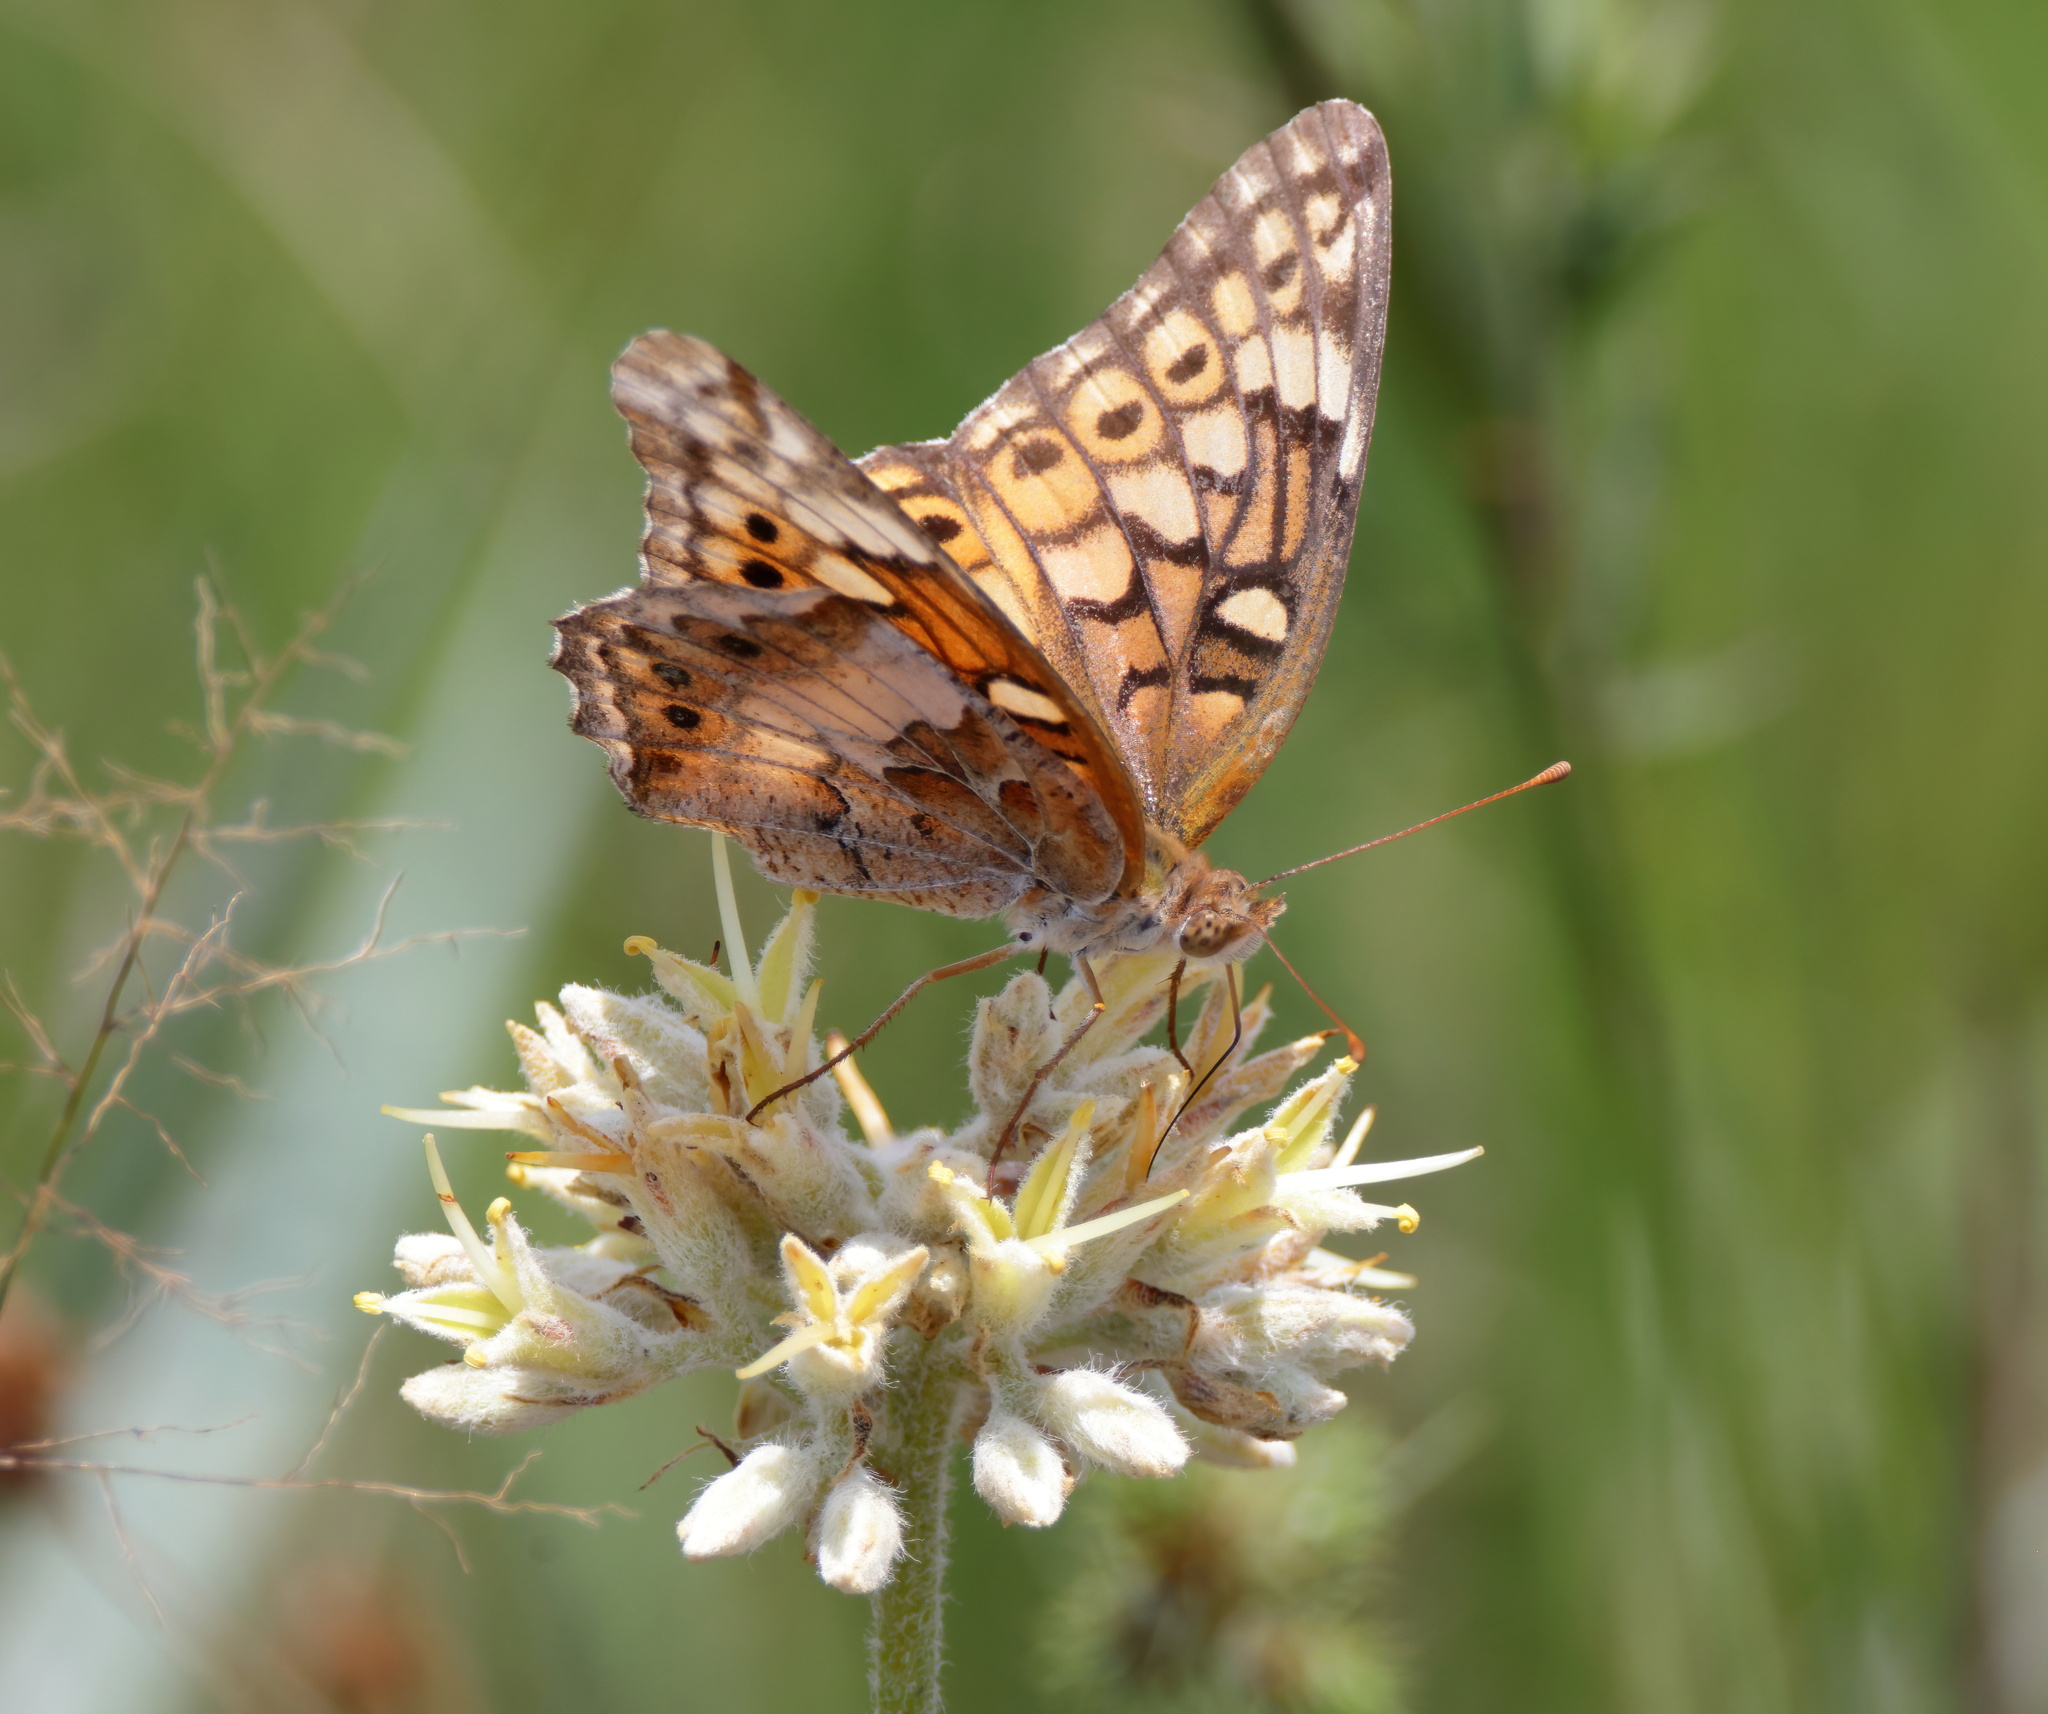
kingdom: Animalia
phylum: Arthropoda
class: Insecta
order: Lepidoptera
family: Nymphalidae
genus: Euptoieta
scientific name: Euptoieta claudia
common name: Variegated fritillary
